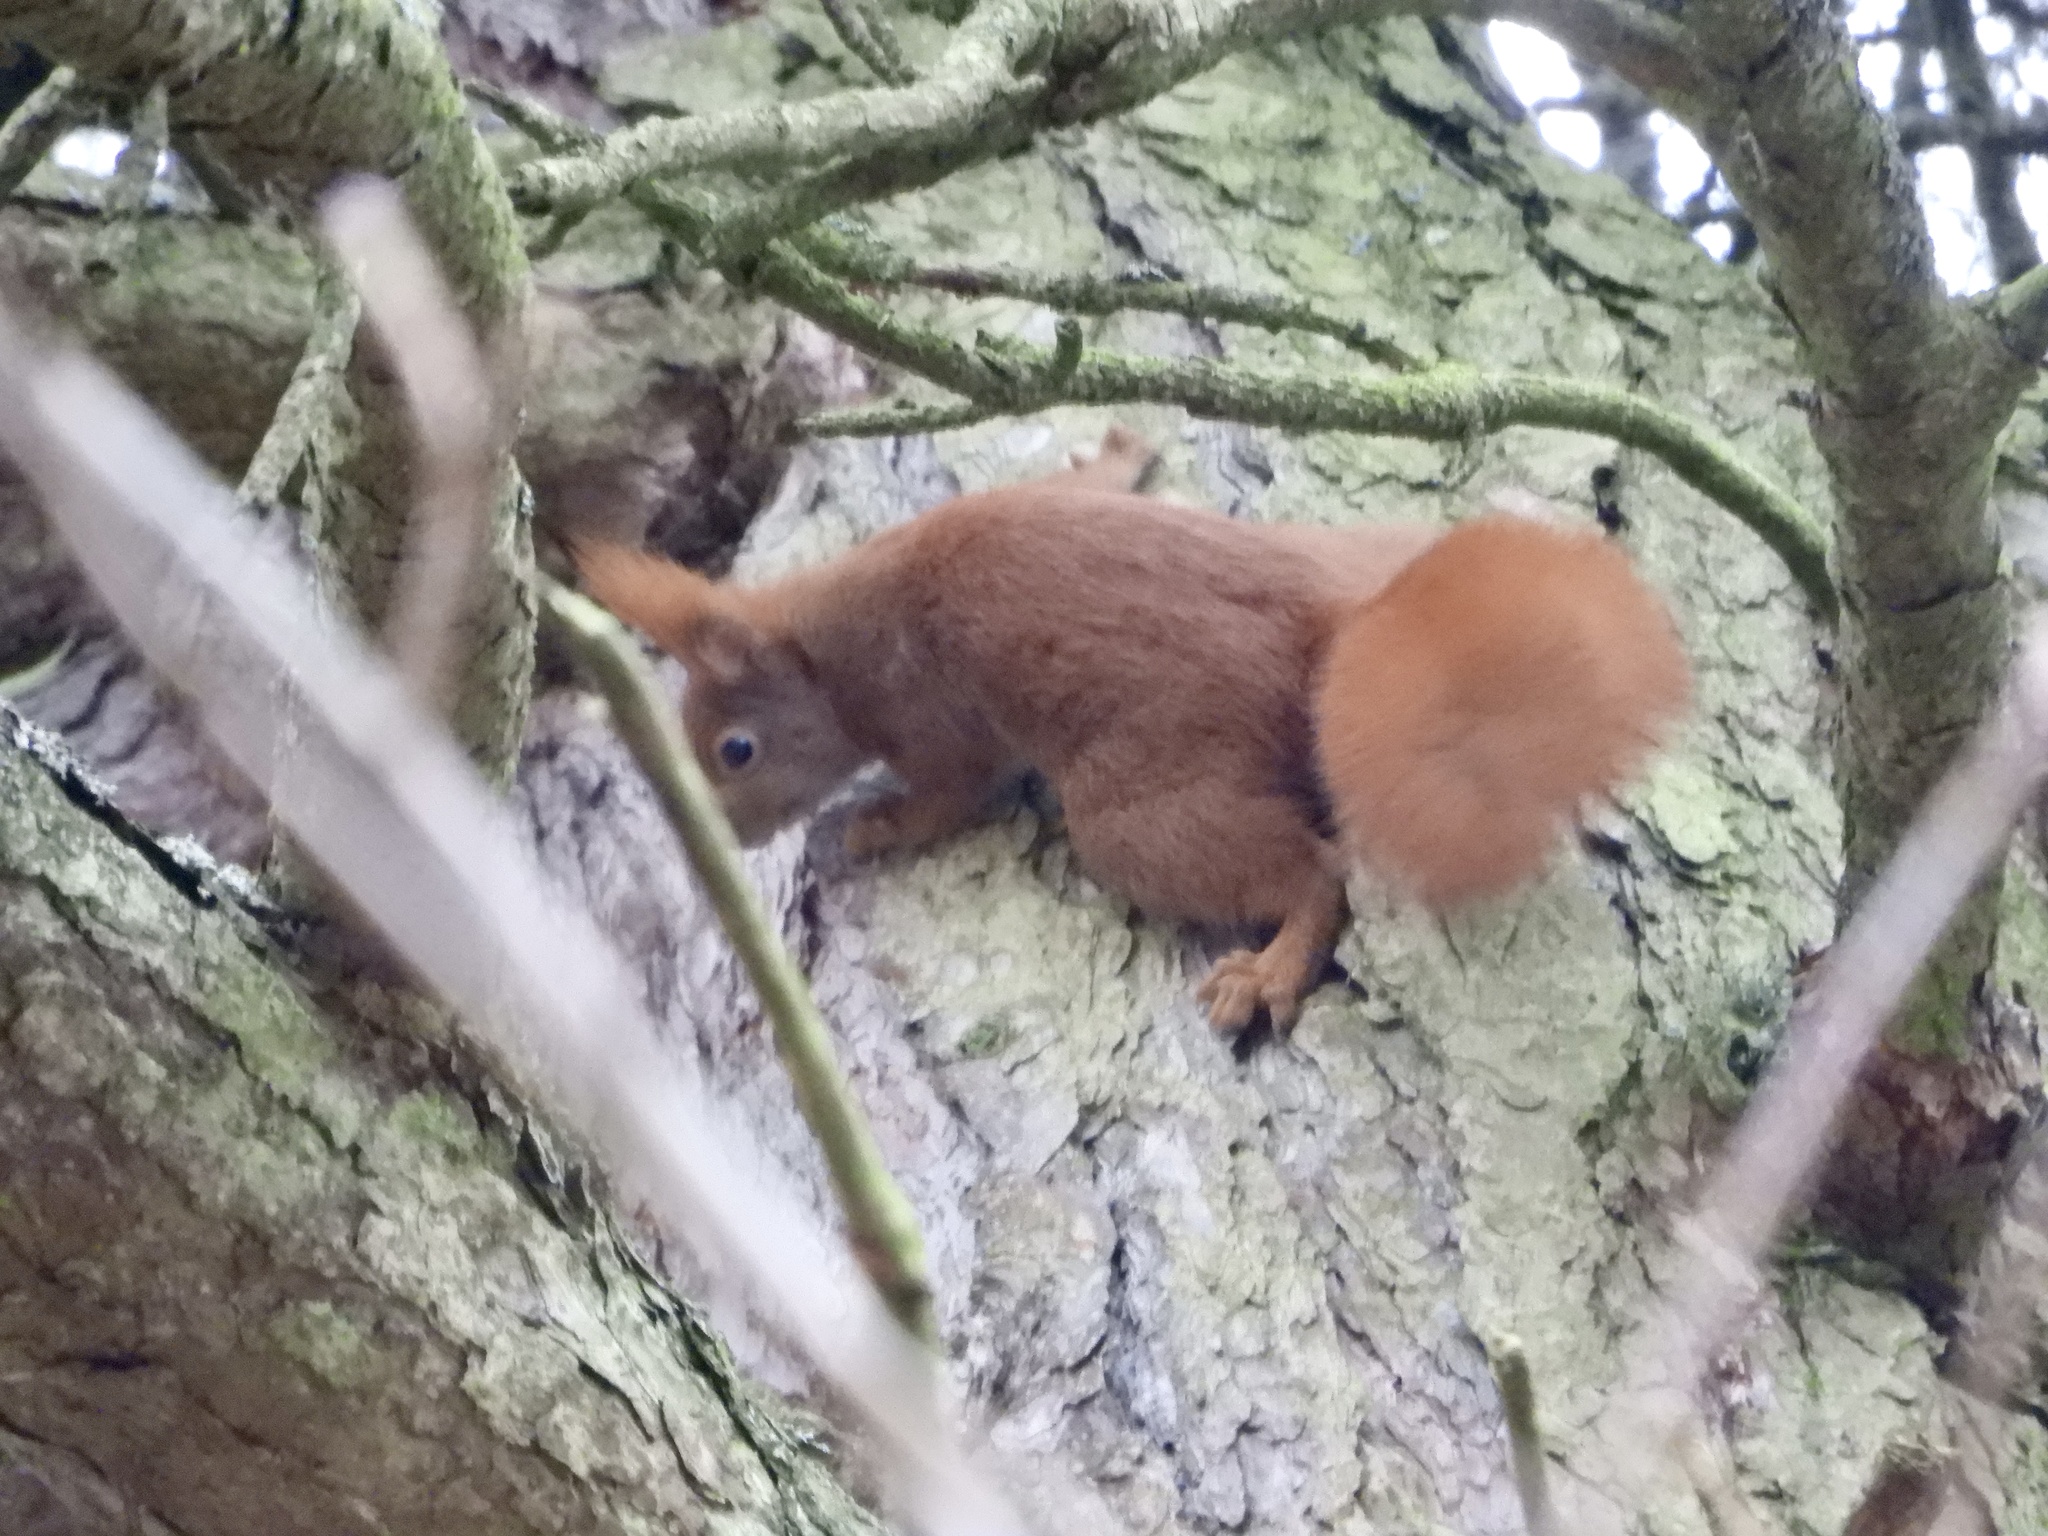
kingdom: Animalia
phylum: Chordata
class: Mammalia
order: Rodentia
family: Sciuridae
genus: Sciurus
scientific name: Sciurus vulgaris
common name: Eurasian red squirrel
